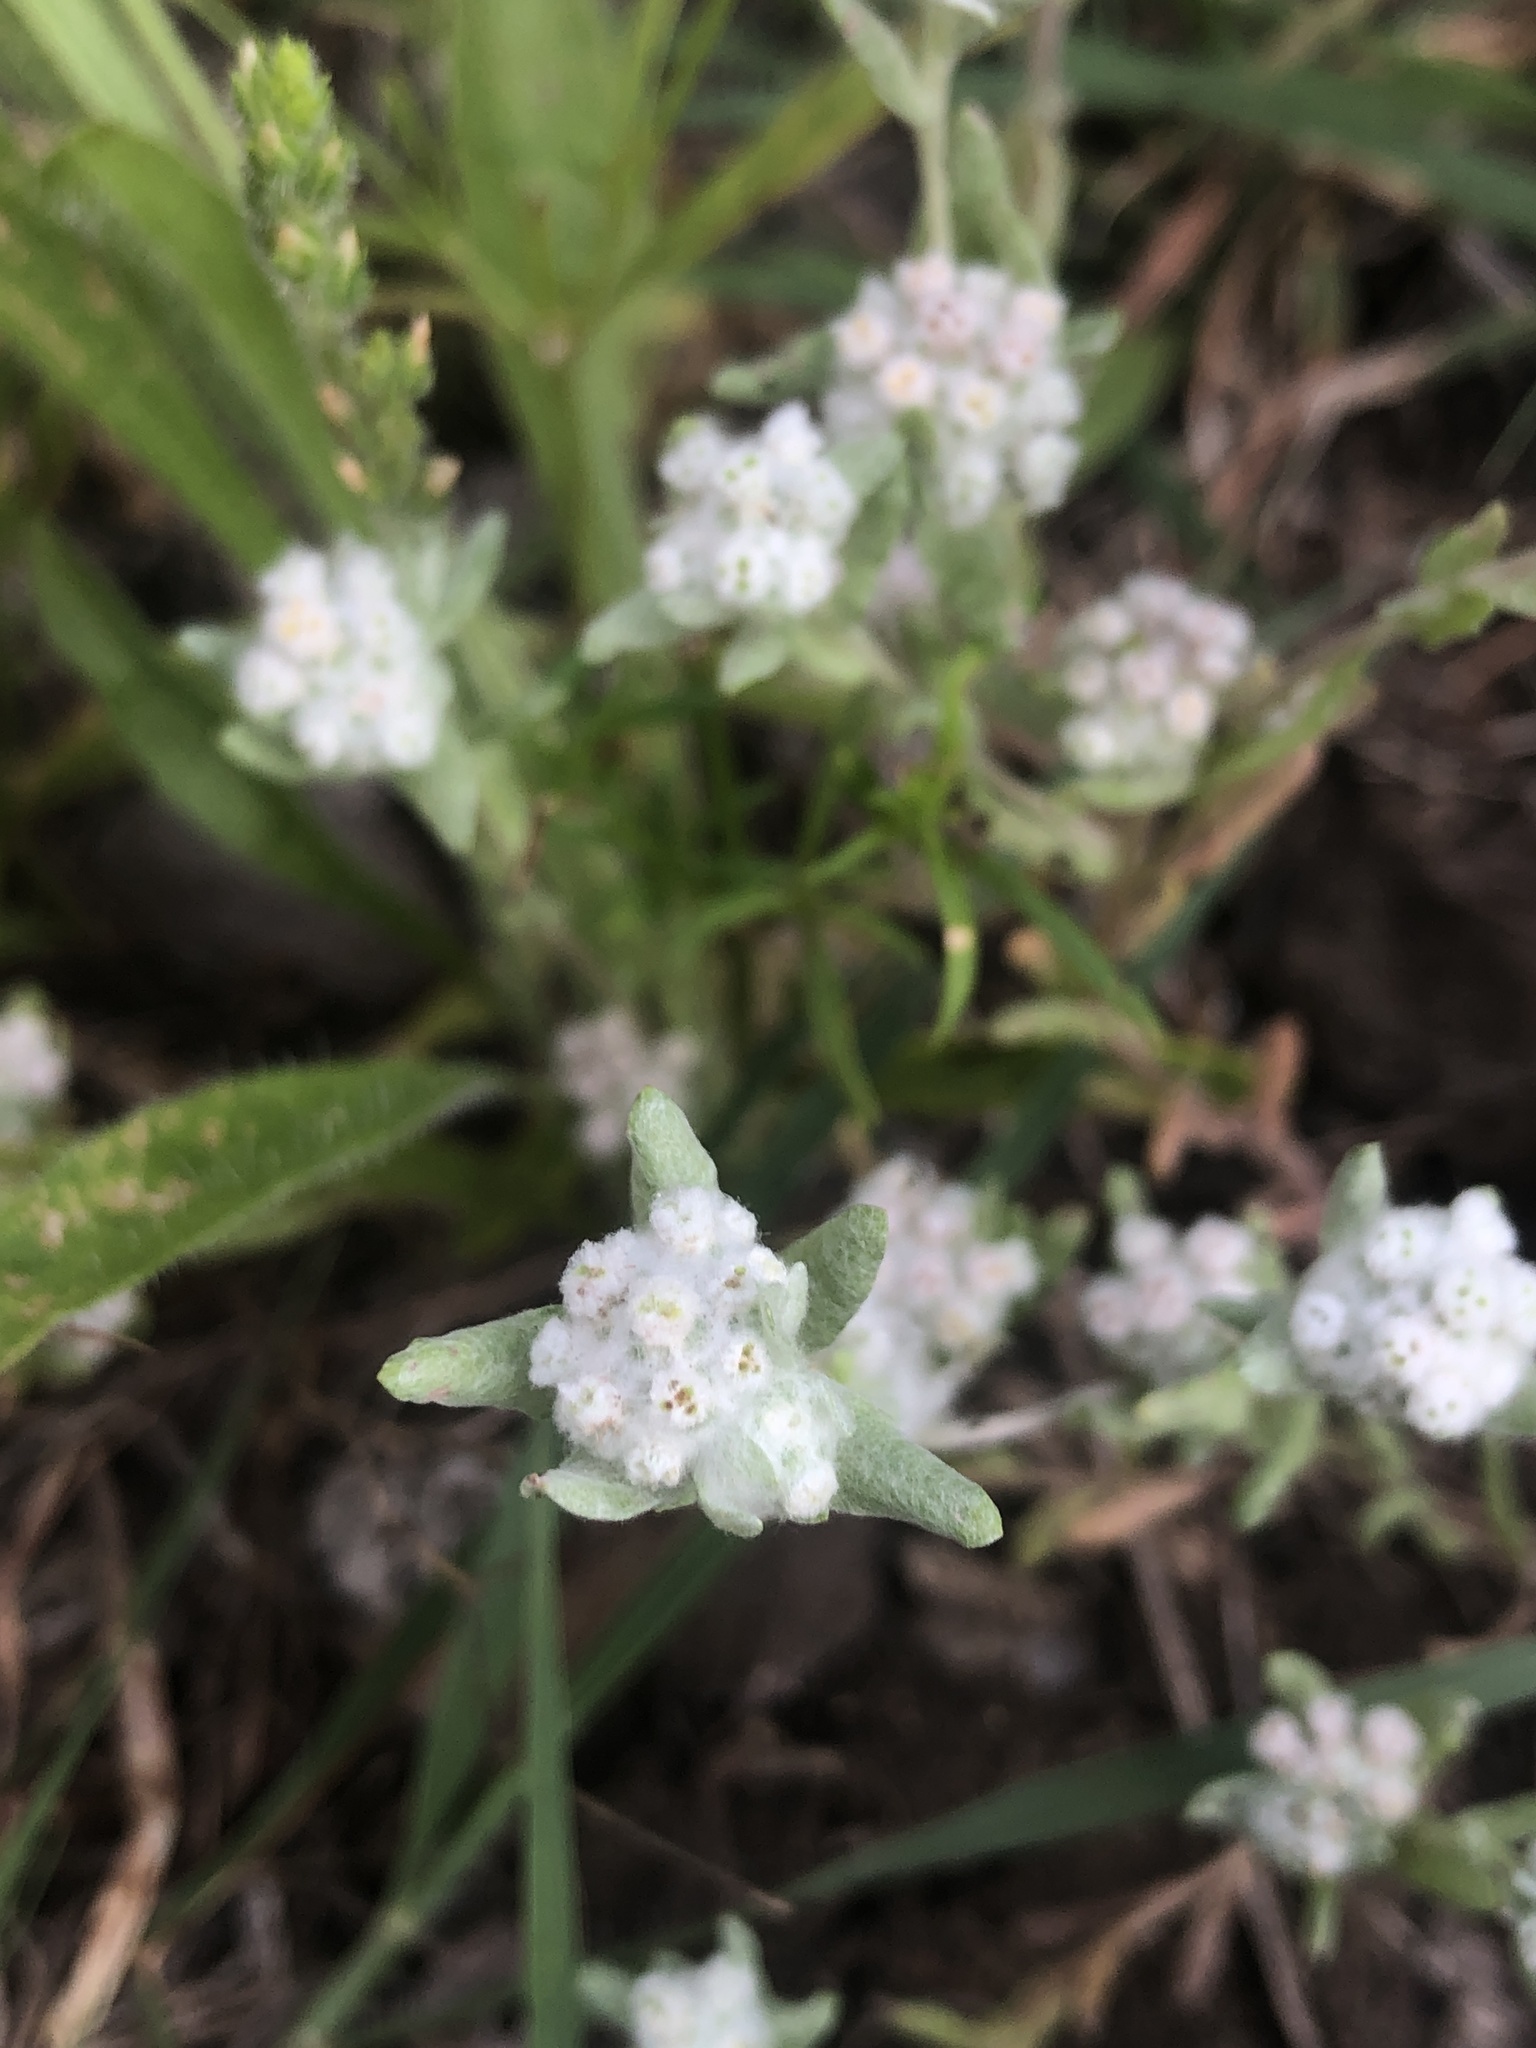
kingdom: Plantae
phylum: Tracheophyta
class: Magnoliopsida
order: Asterales
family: Asteraceae
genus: Diaperia
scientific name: Diaperia verna
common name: Many-stem rabbit-tobacco
